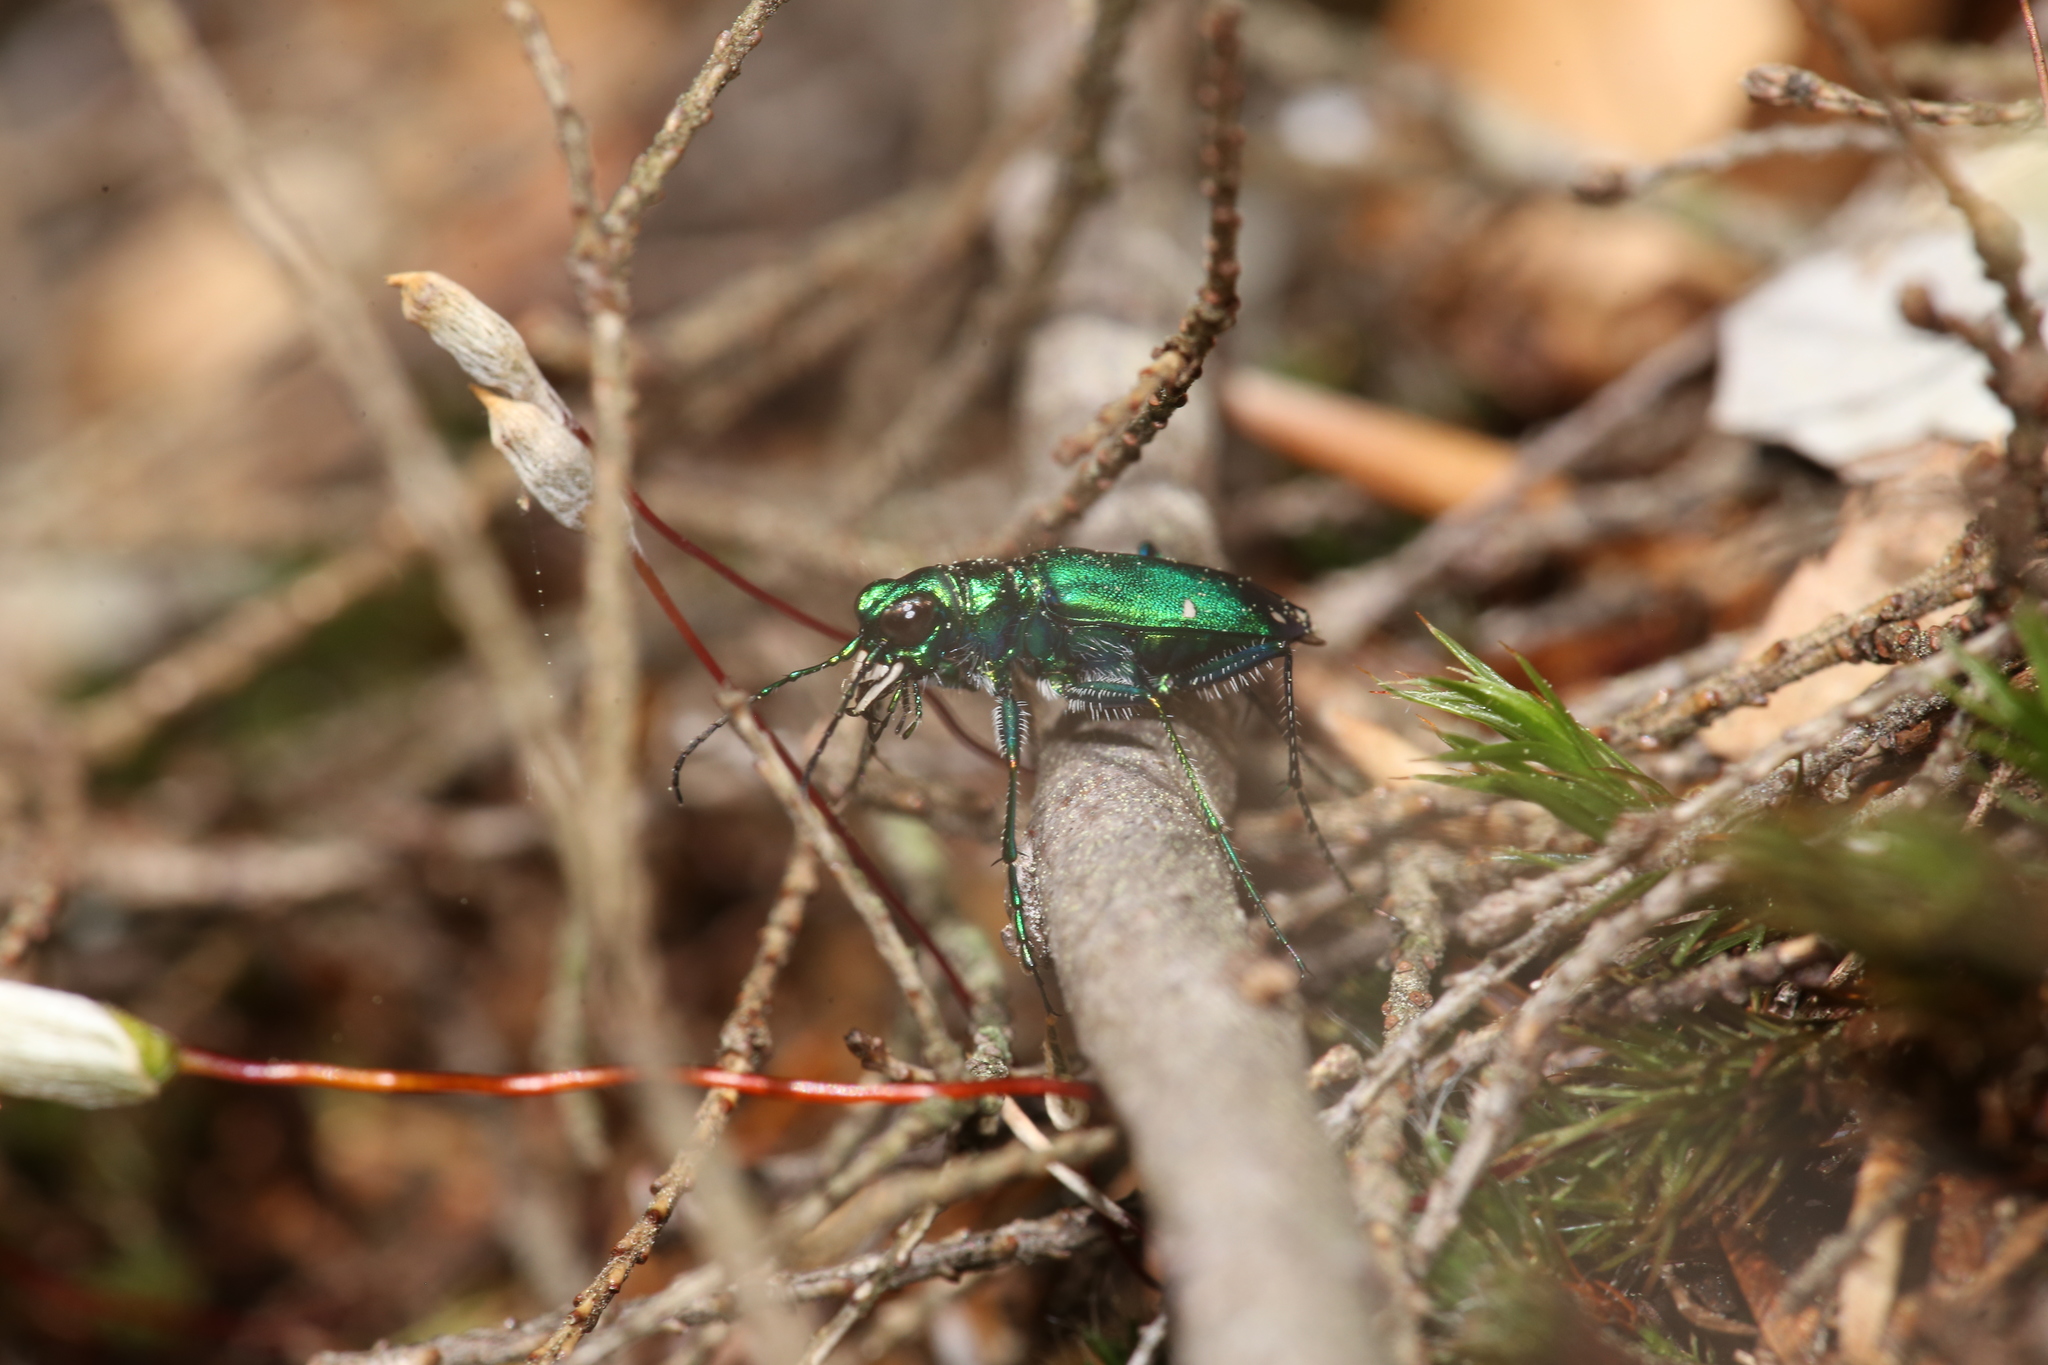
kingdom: Animalia
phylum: Arthropoda
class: Insecta
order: Coleoptera
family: Carabidae
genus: Cicindela
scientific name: Cicindela sexguttata
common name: Six-spotted tiger beetle
